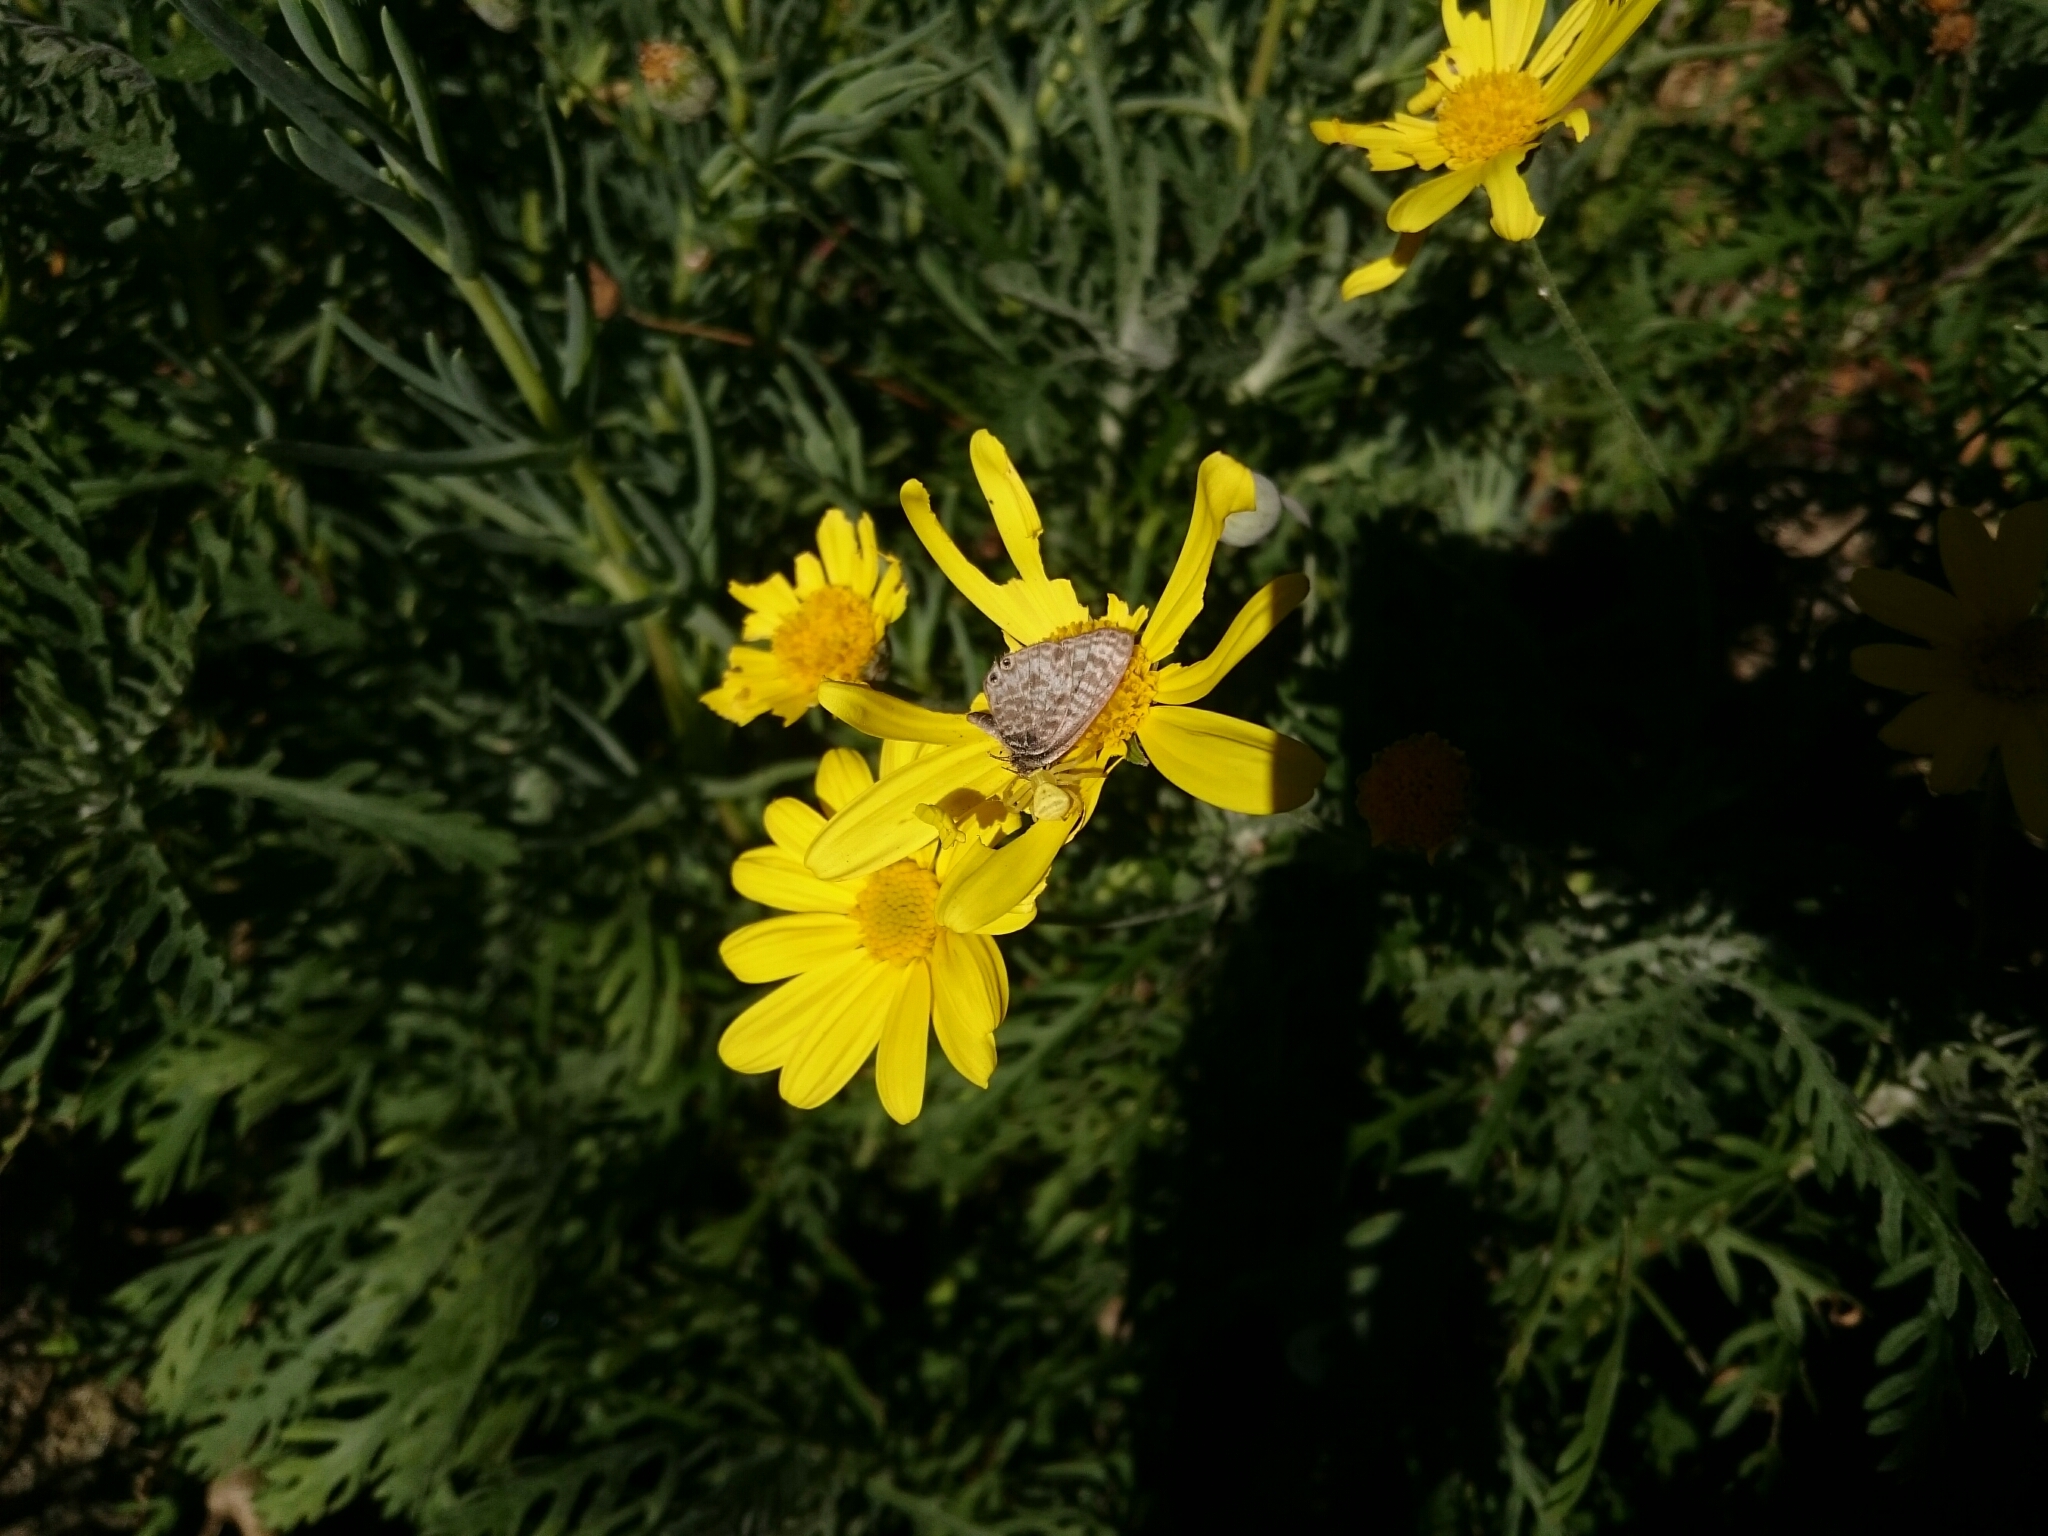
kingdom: Animalia
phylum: Arthropoda
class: Insecta
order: Lepidoptera
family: Lycaenidae
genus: Leptotes
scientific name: Leptotes
